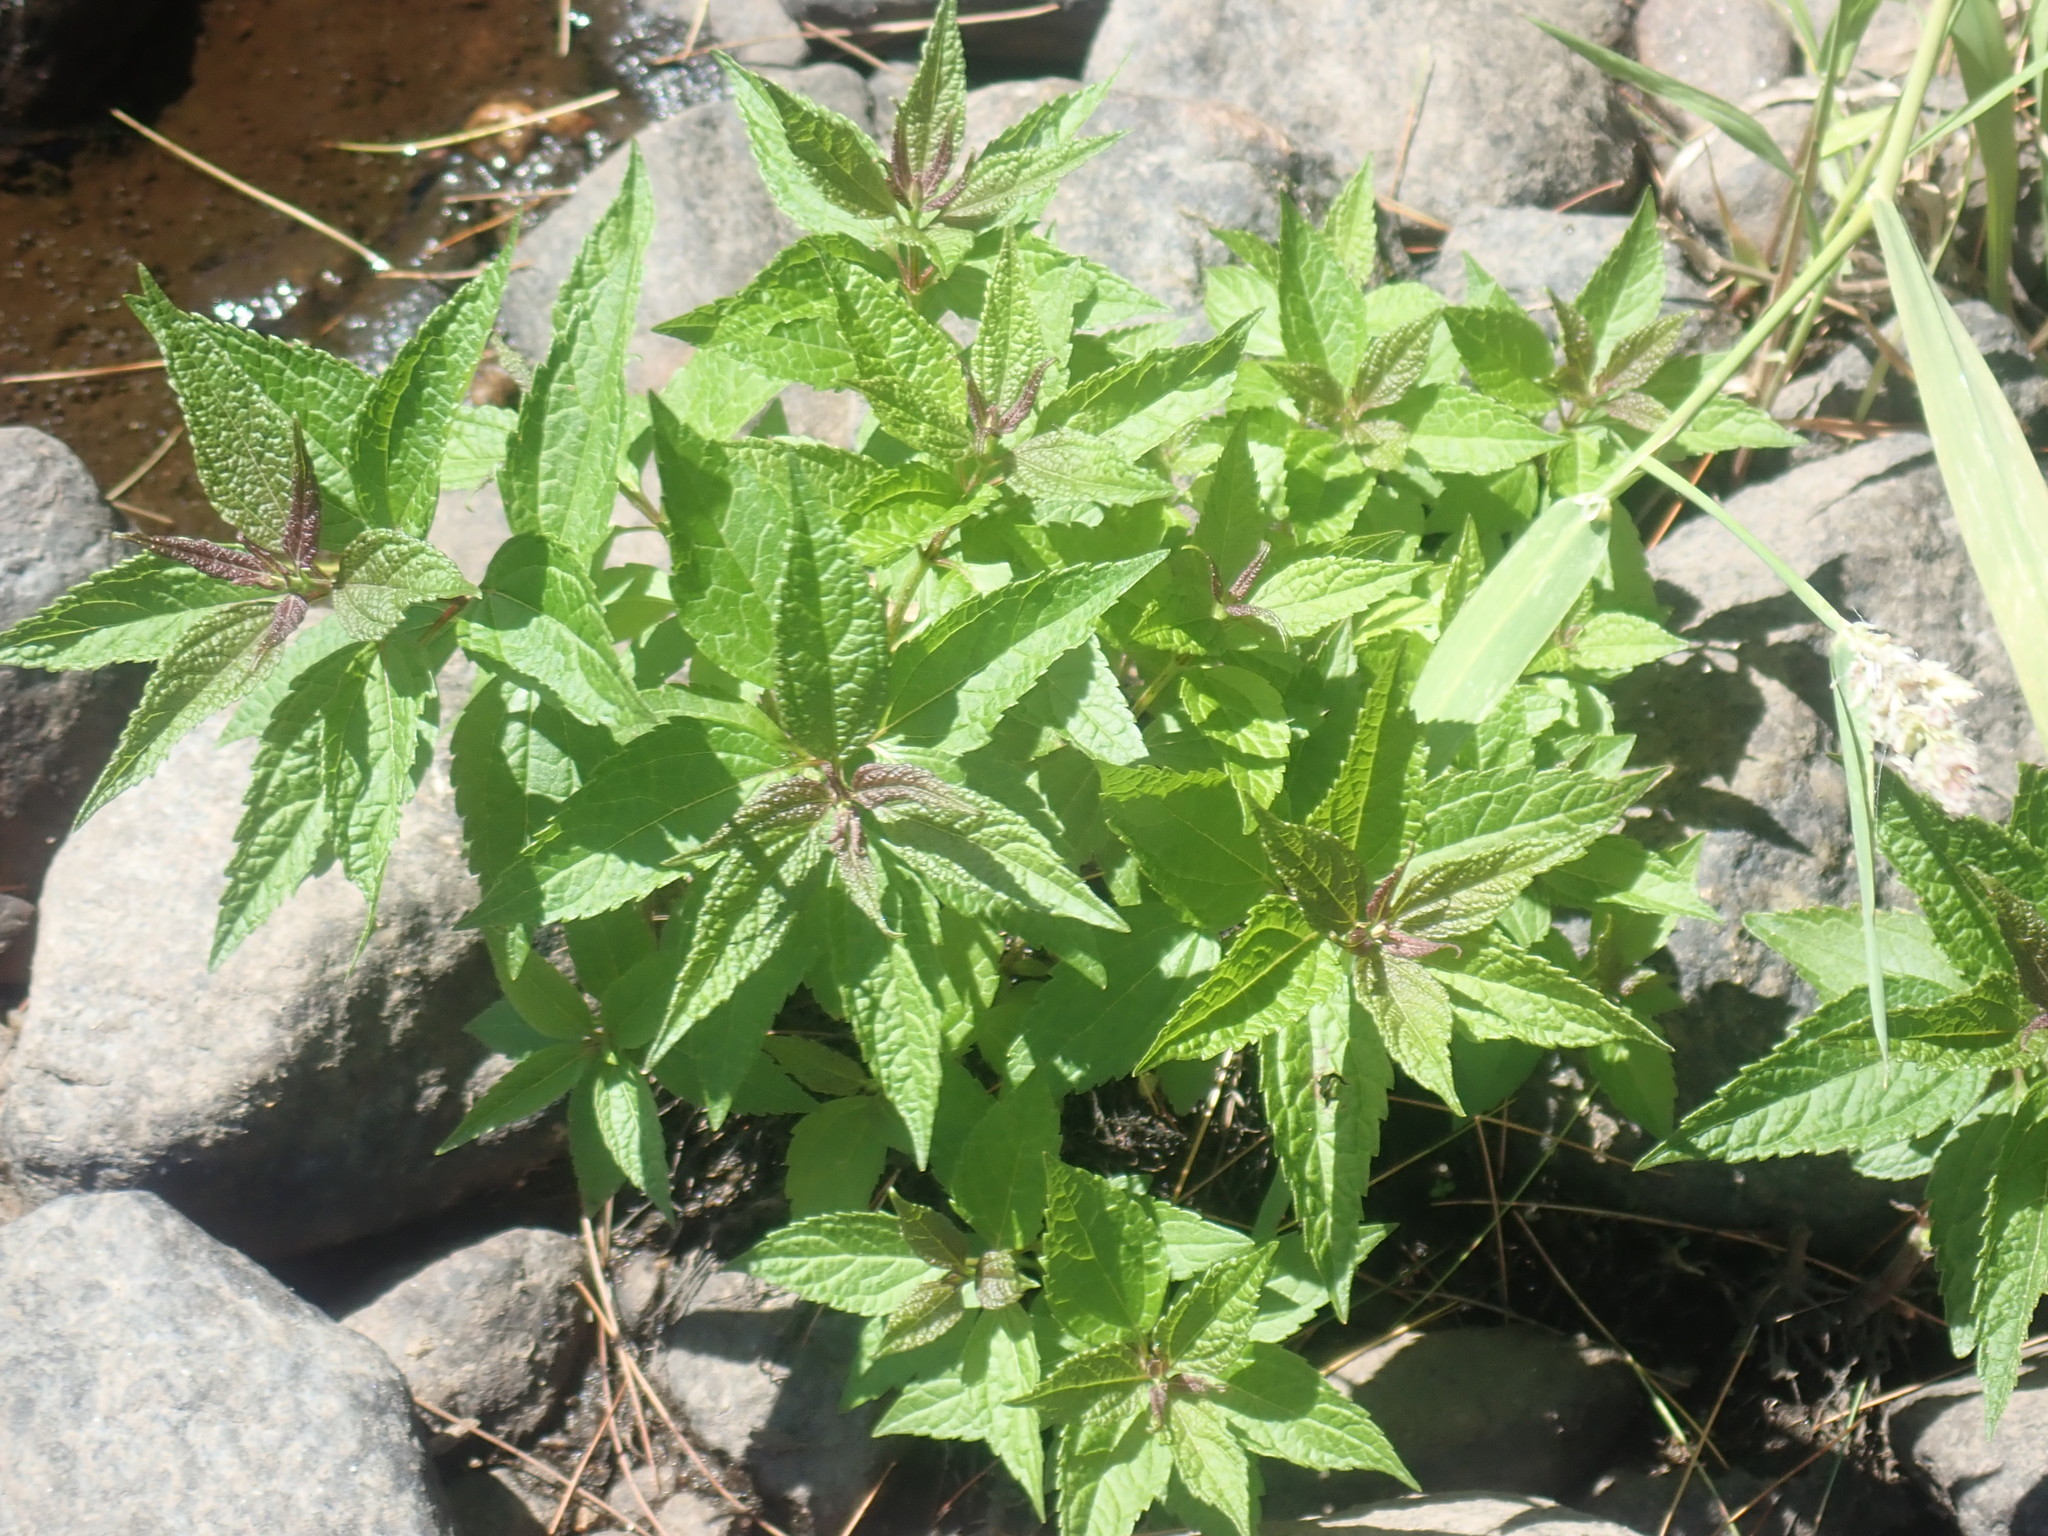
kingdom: Plantae
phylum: Tracheophyta
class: Magnoliopsida
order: Asterales
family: Asteraceae
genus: Eutrochium
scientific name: Eutrochium
